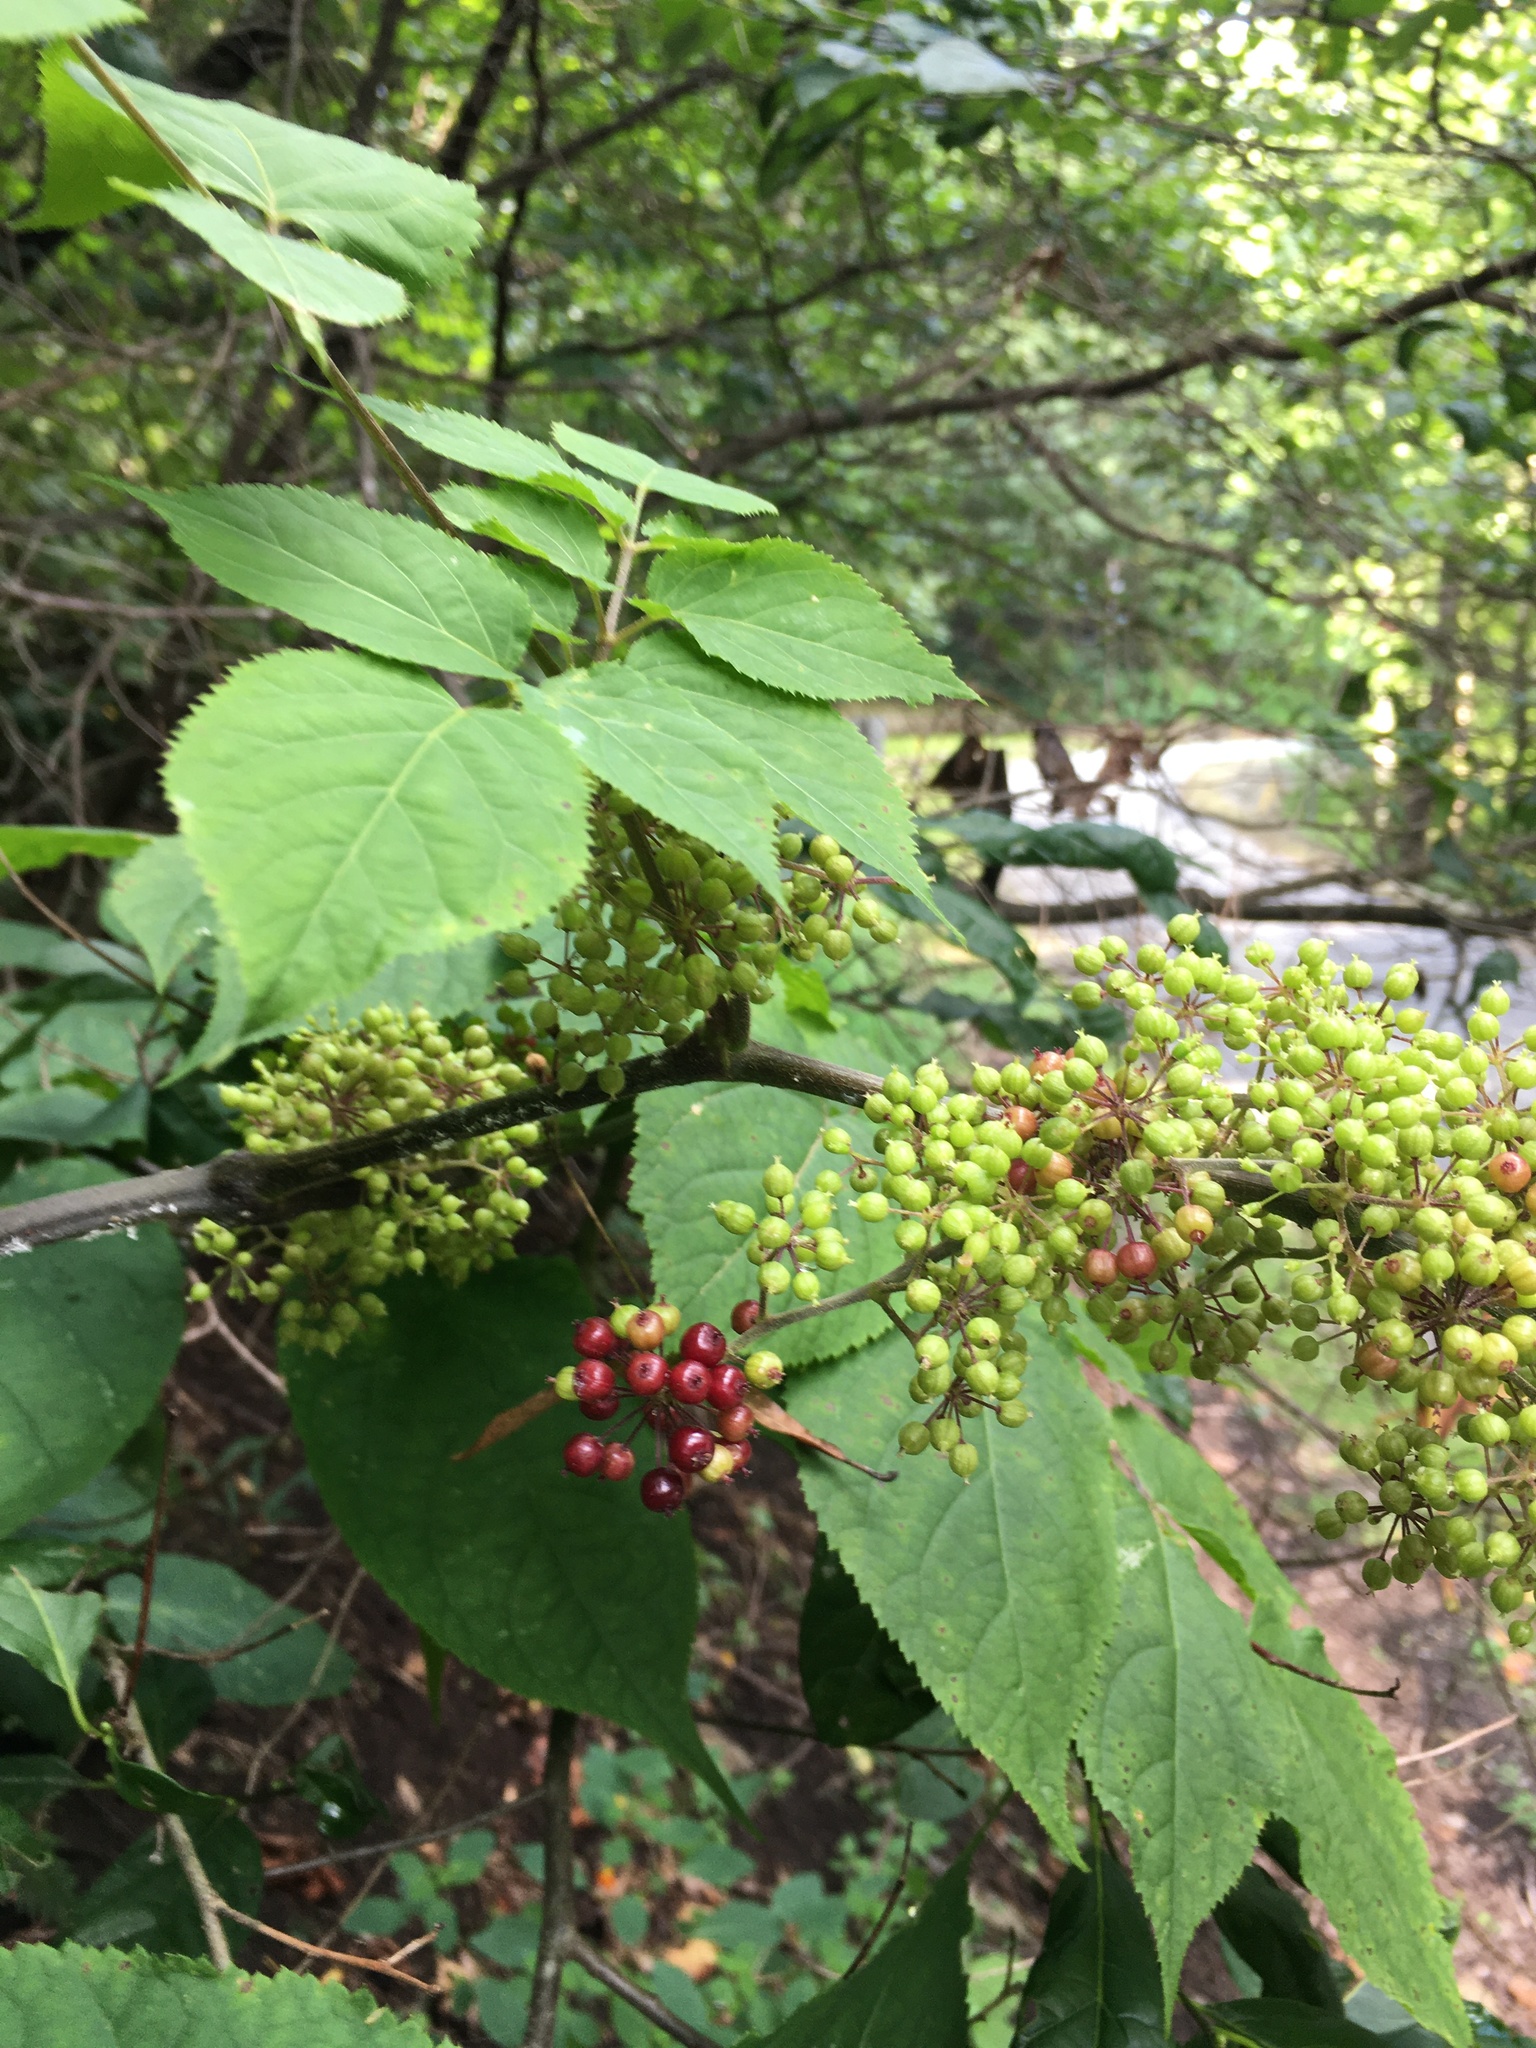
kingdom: Plantae
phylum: Tracheophyta
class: Magnoliopsida
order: Apiales
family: Araliaceae
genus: Aralia
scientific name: Aralia racemosa
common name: American-spikenard
